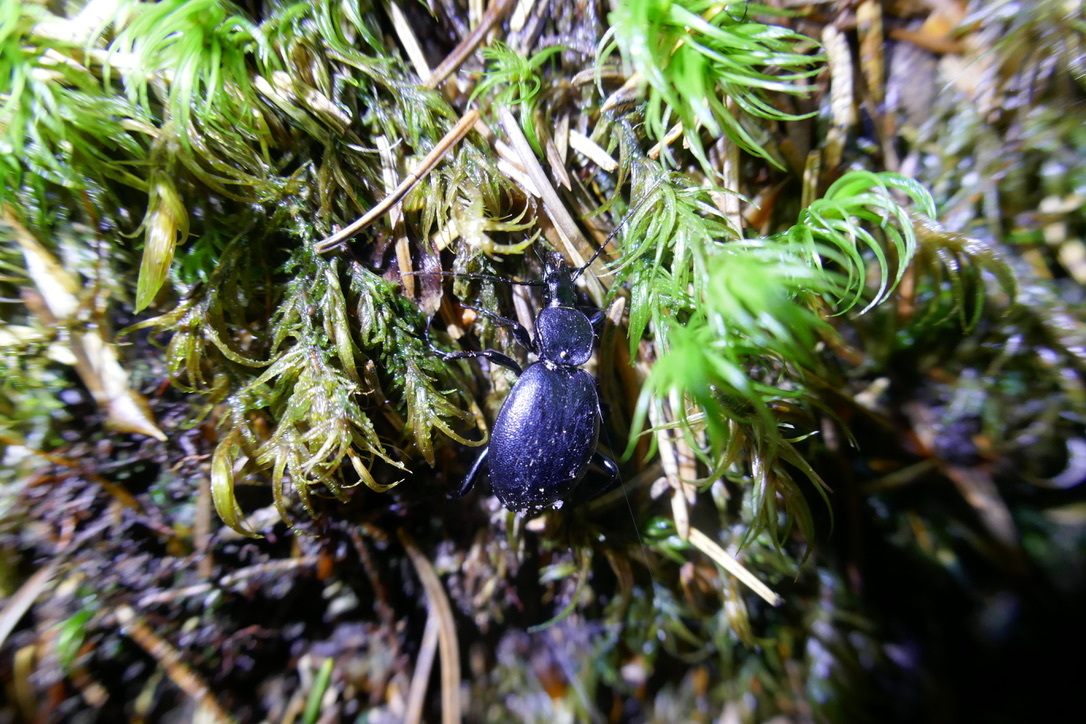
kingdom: Animalia
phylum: Arthropoda
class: Insecta
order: Coleoptera
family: Carabidae
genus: Cychrus
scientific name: Cychrus caraboides
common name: Snail hunter
